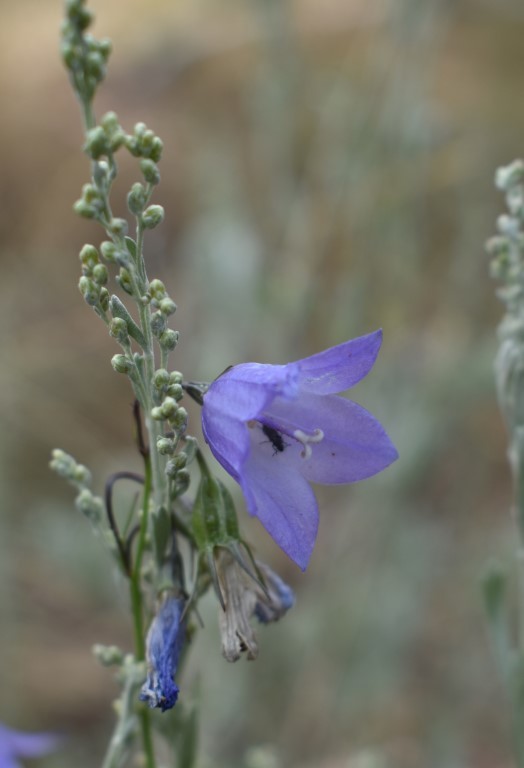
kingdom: Plantae
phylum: Tracheophyta
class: Magnoliopsida
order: Asterales
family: Campanulaceae
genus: Campanula
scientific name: Campanula petiolata
